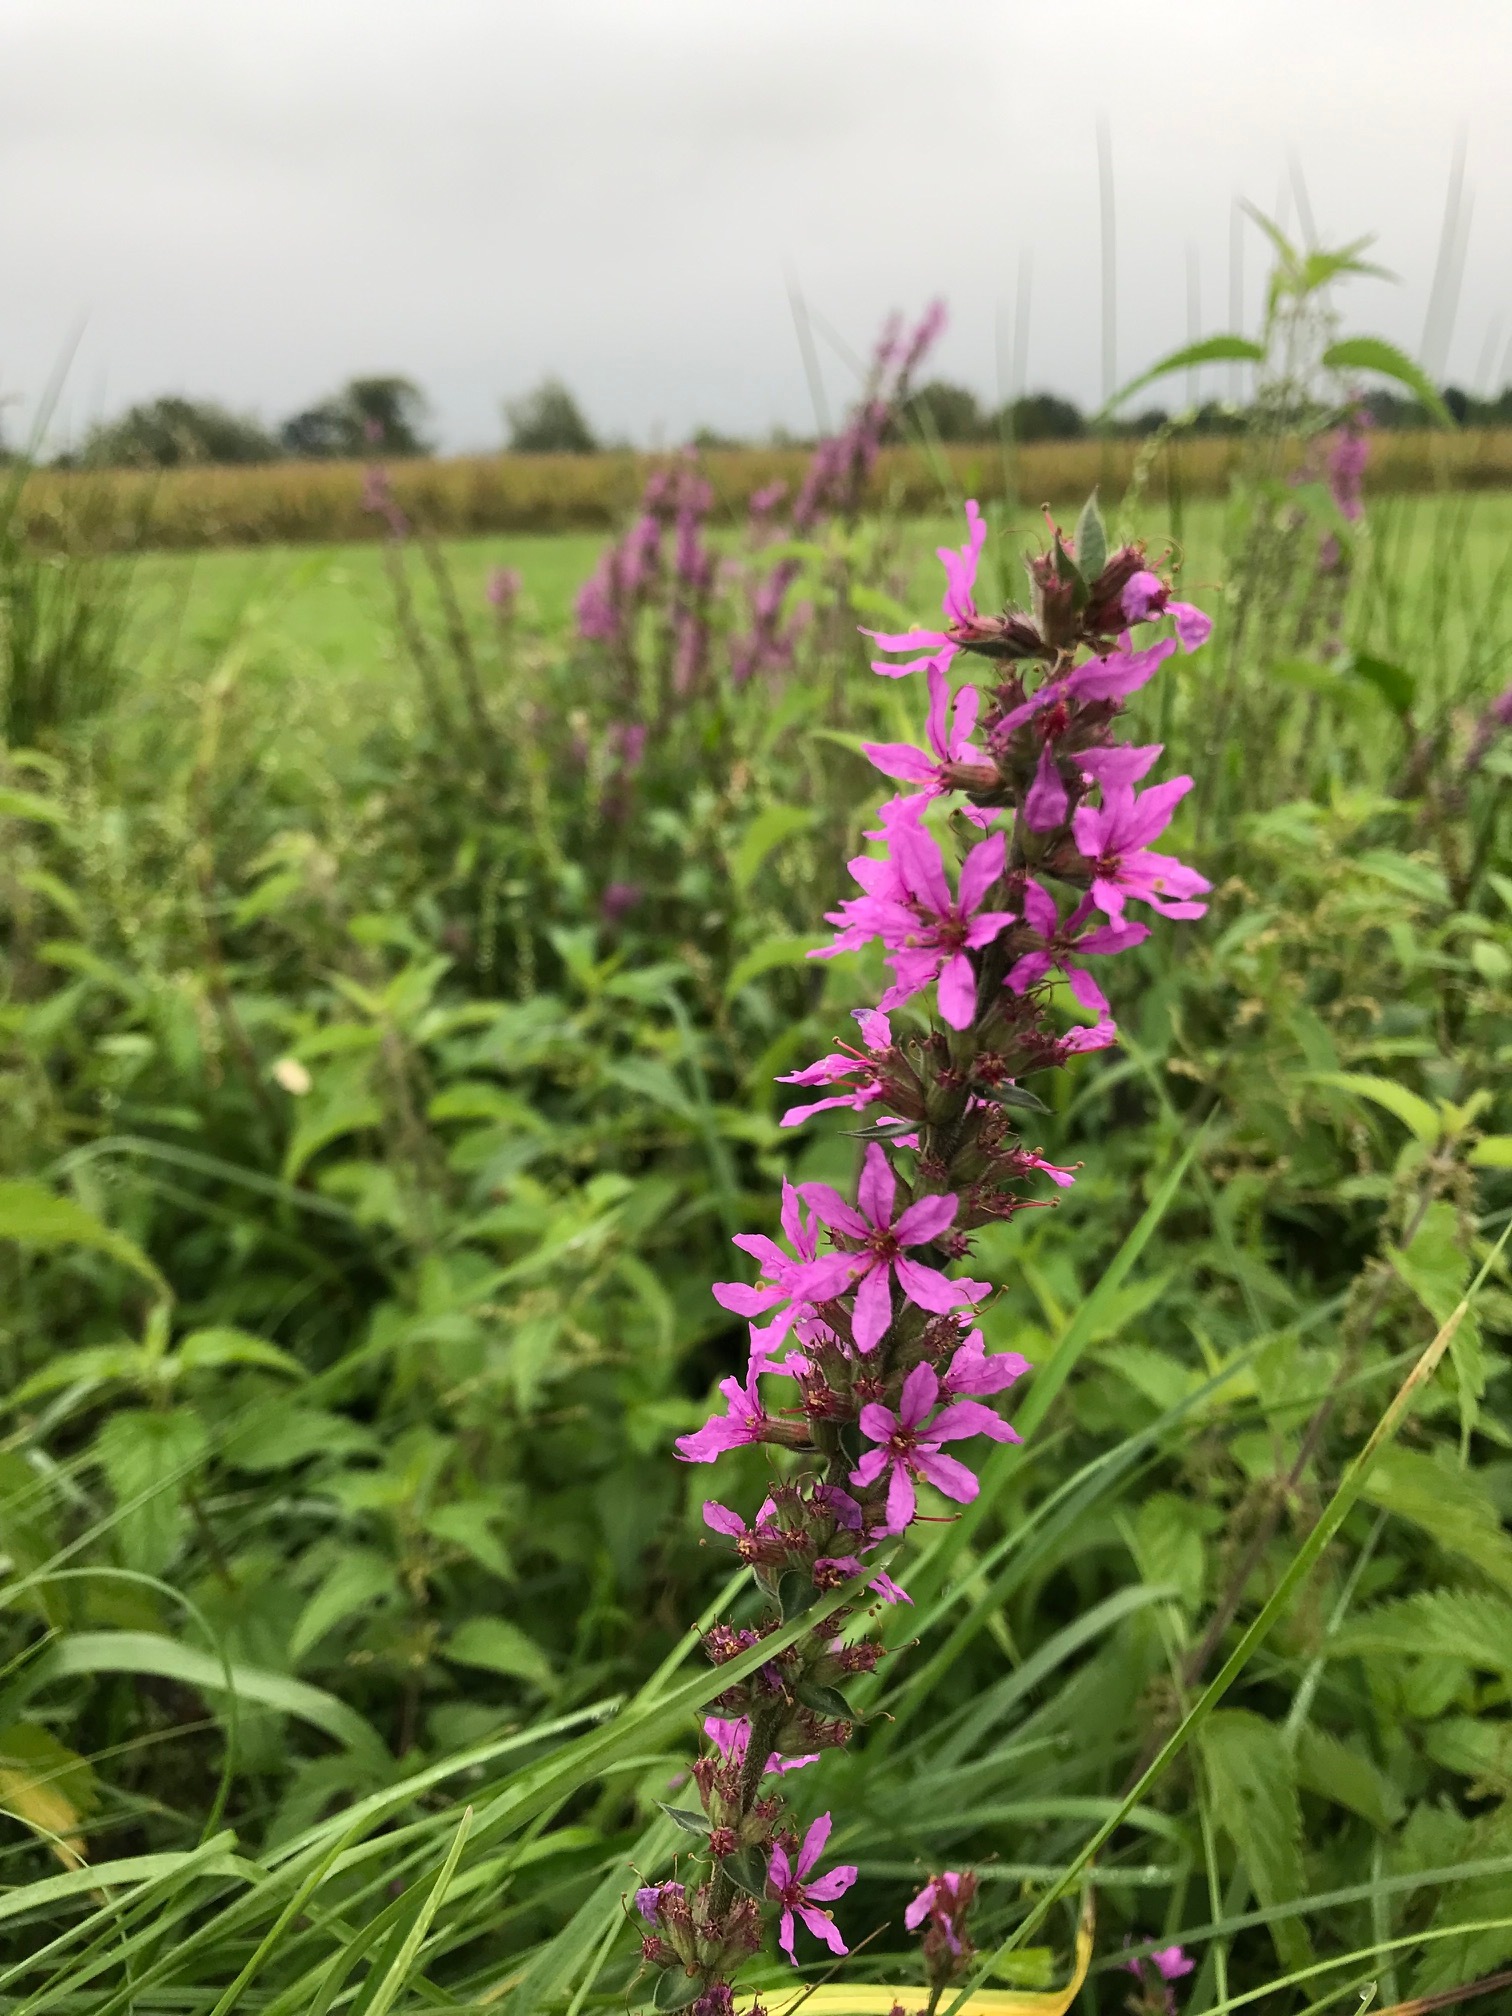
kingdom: Plantae
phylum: Tracheophyta
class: Magnoliopsida
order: Myrtales
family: Lythraceae
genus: Lythrum
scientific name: Lythrum salicaria
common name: Purple loosestrife
